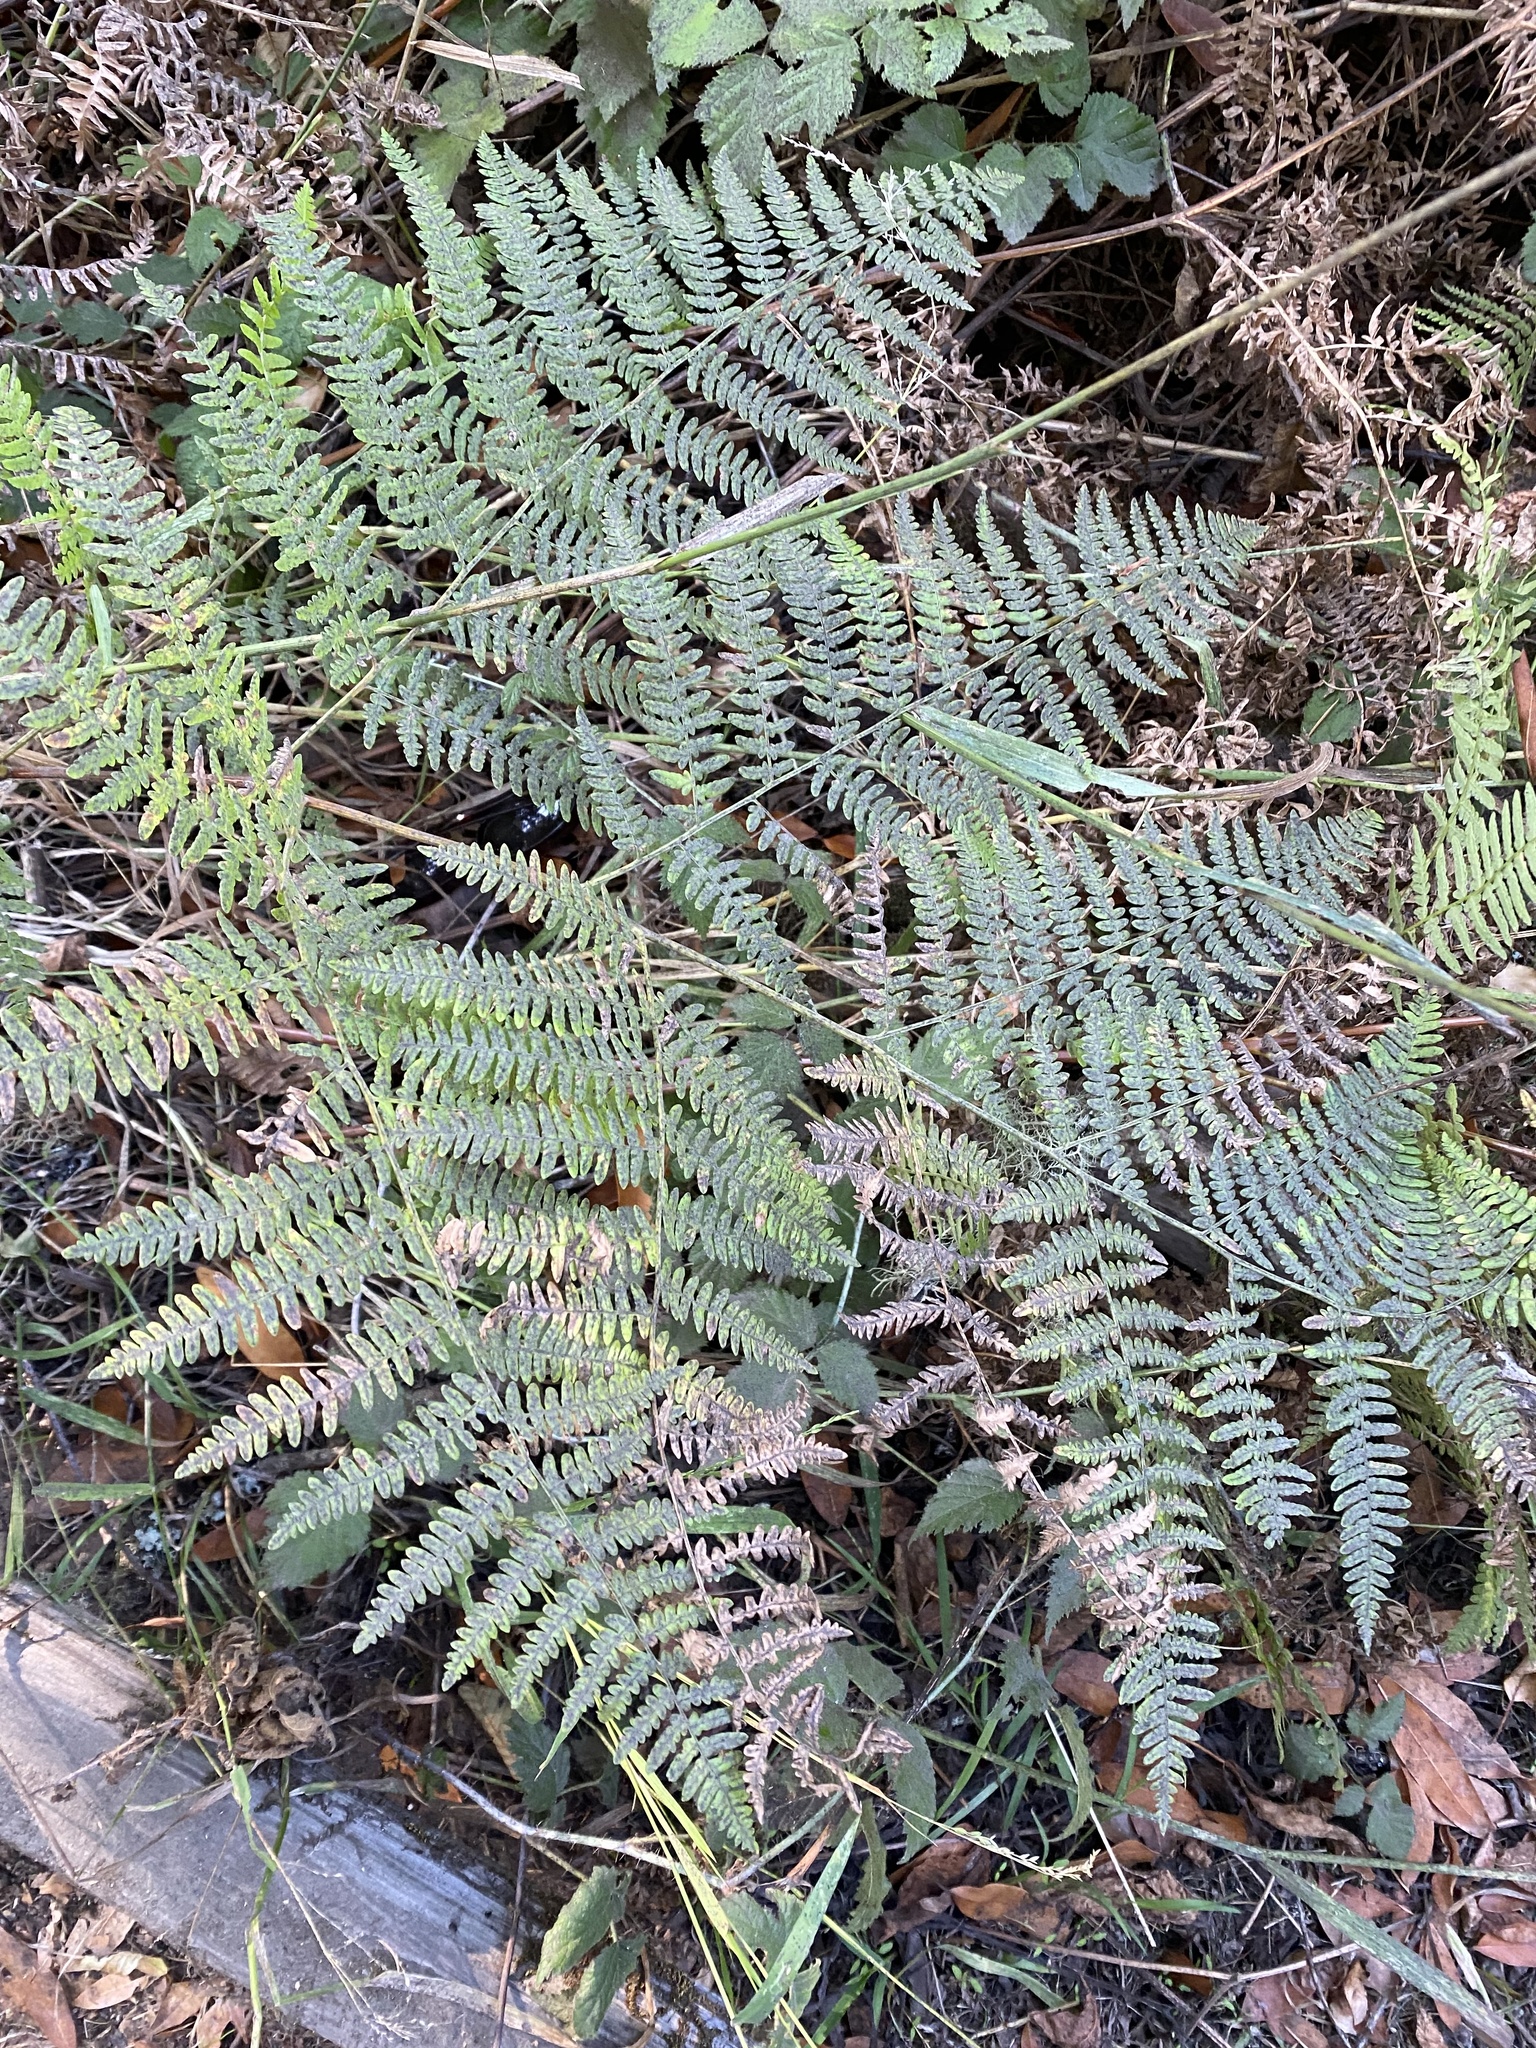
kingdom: Plantae
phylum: Tracheophyta
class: Polypodiopsida
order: Polypodiales
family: Athyriaceae
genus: Athyrium
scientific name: Athyrium filix-femina
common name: Lady fern
